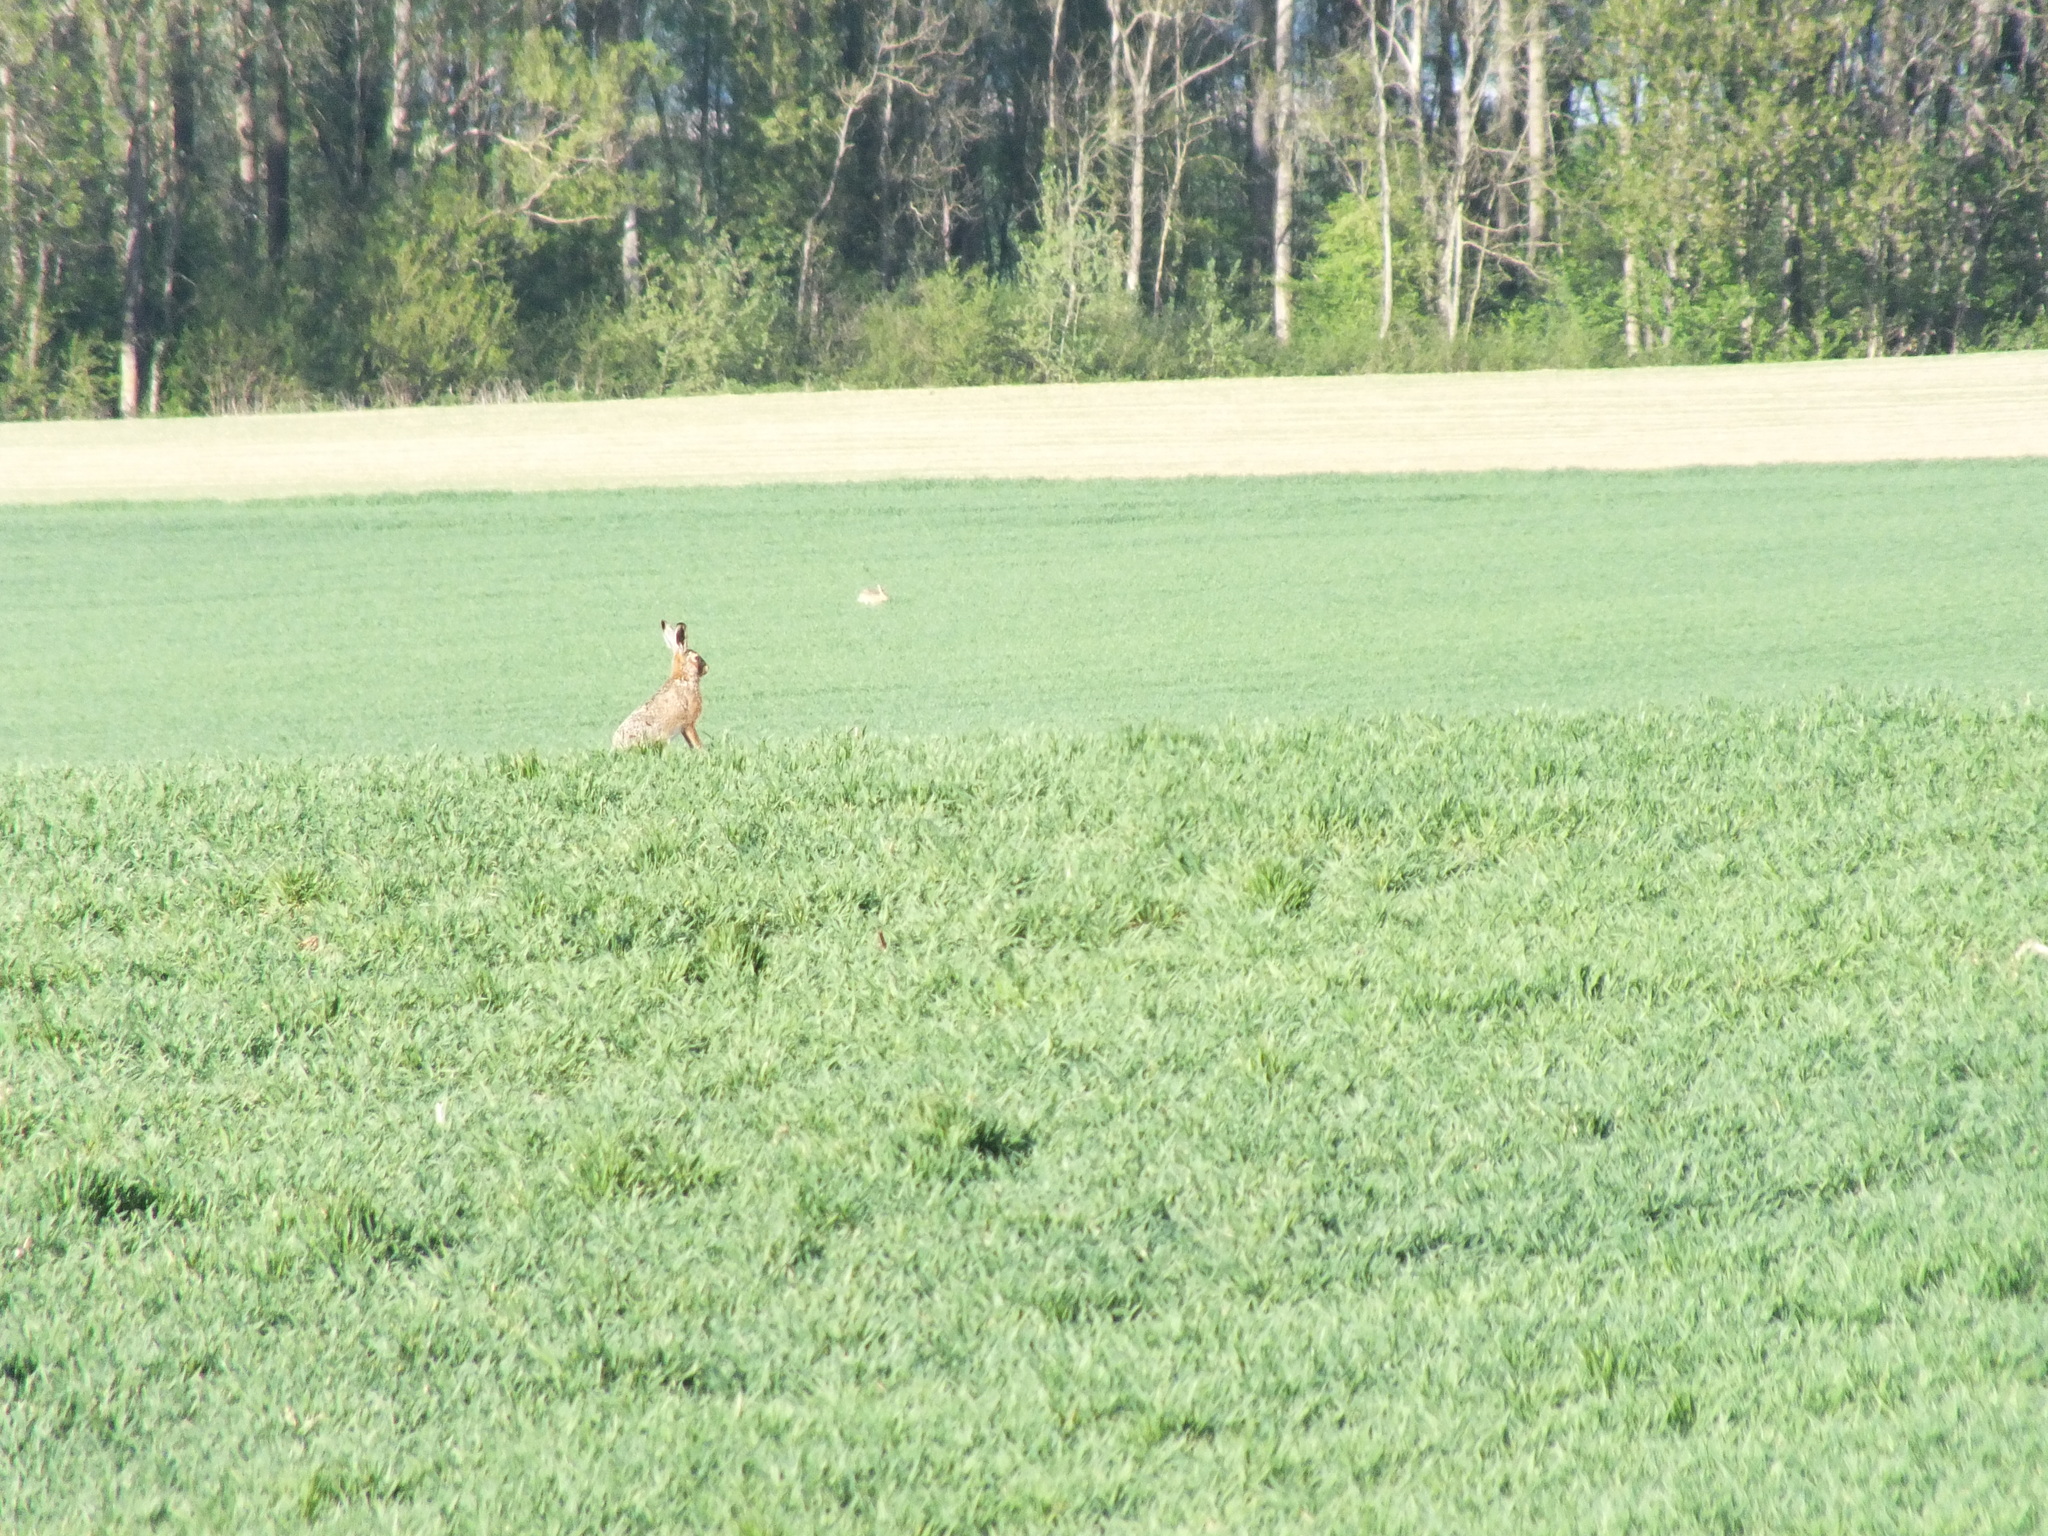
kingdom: Animalia
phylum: Chordata
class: Mammalia
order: Lagomorpha
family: Leporidae
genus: Lepus
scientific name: Lepus europaeus
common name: European hare
